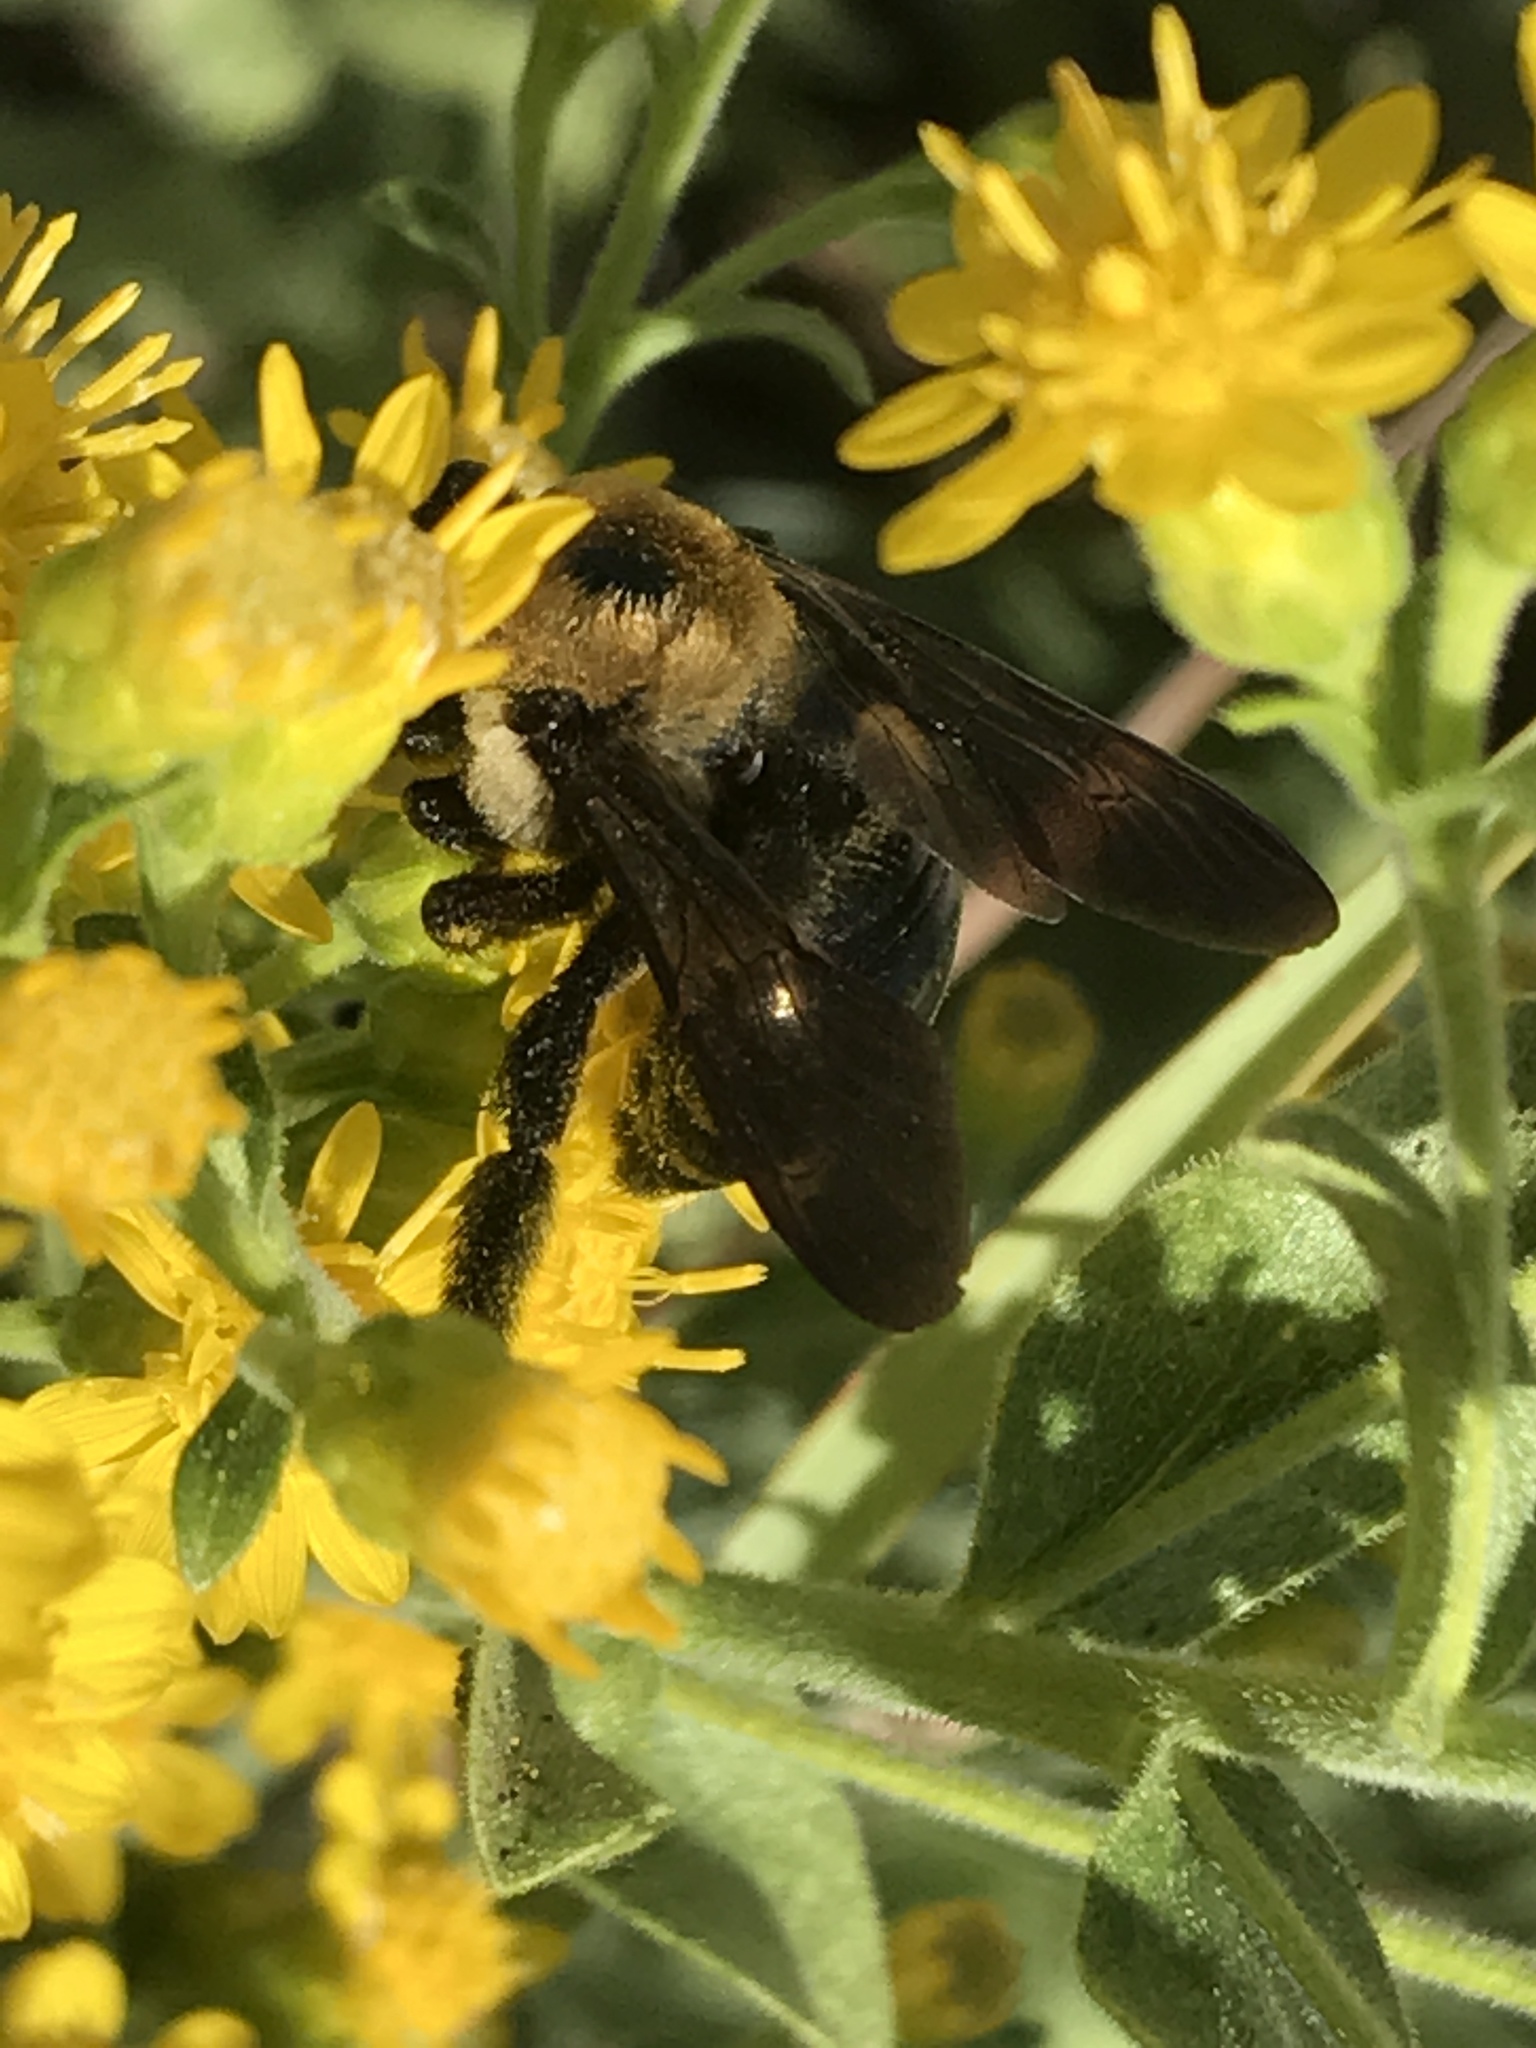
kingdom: Animalia
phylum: Arthropoda
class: Insecta
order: Hymenoptera
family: Apidae
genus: Xylocopa
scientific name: Xylocopa virginica
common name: Carpenter bee
